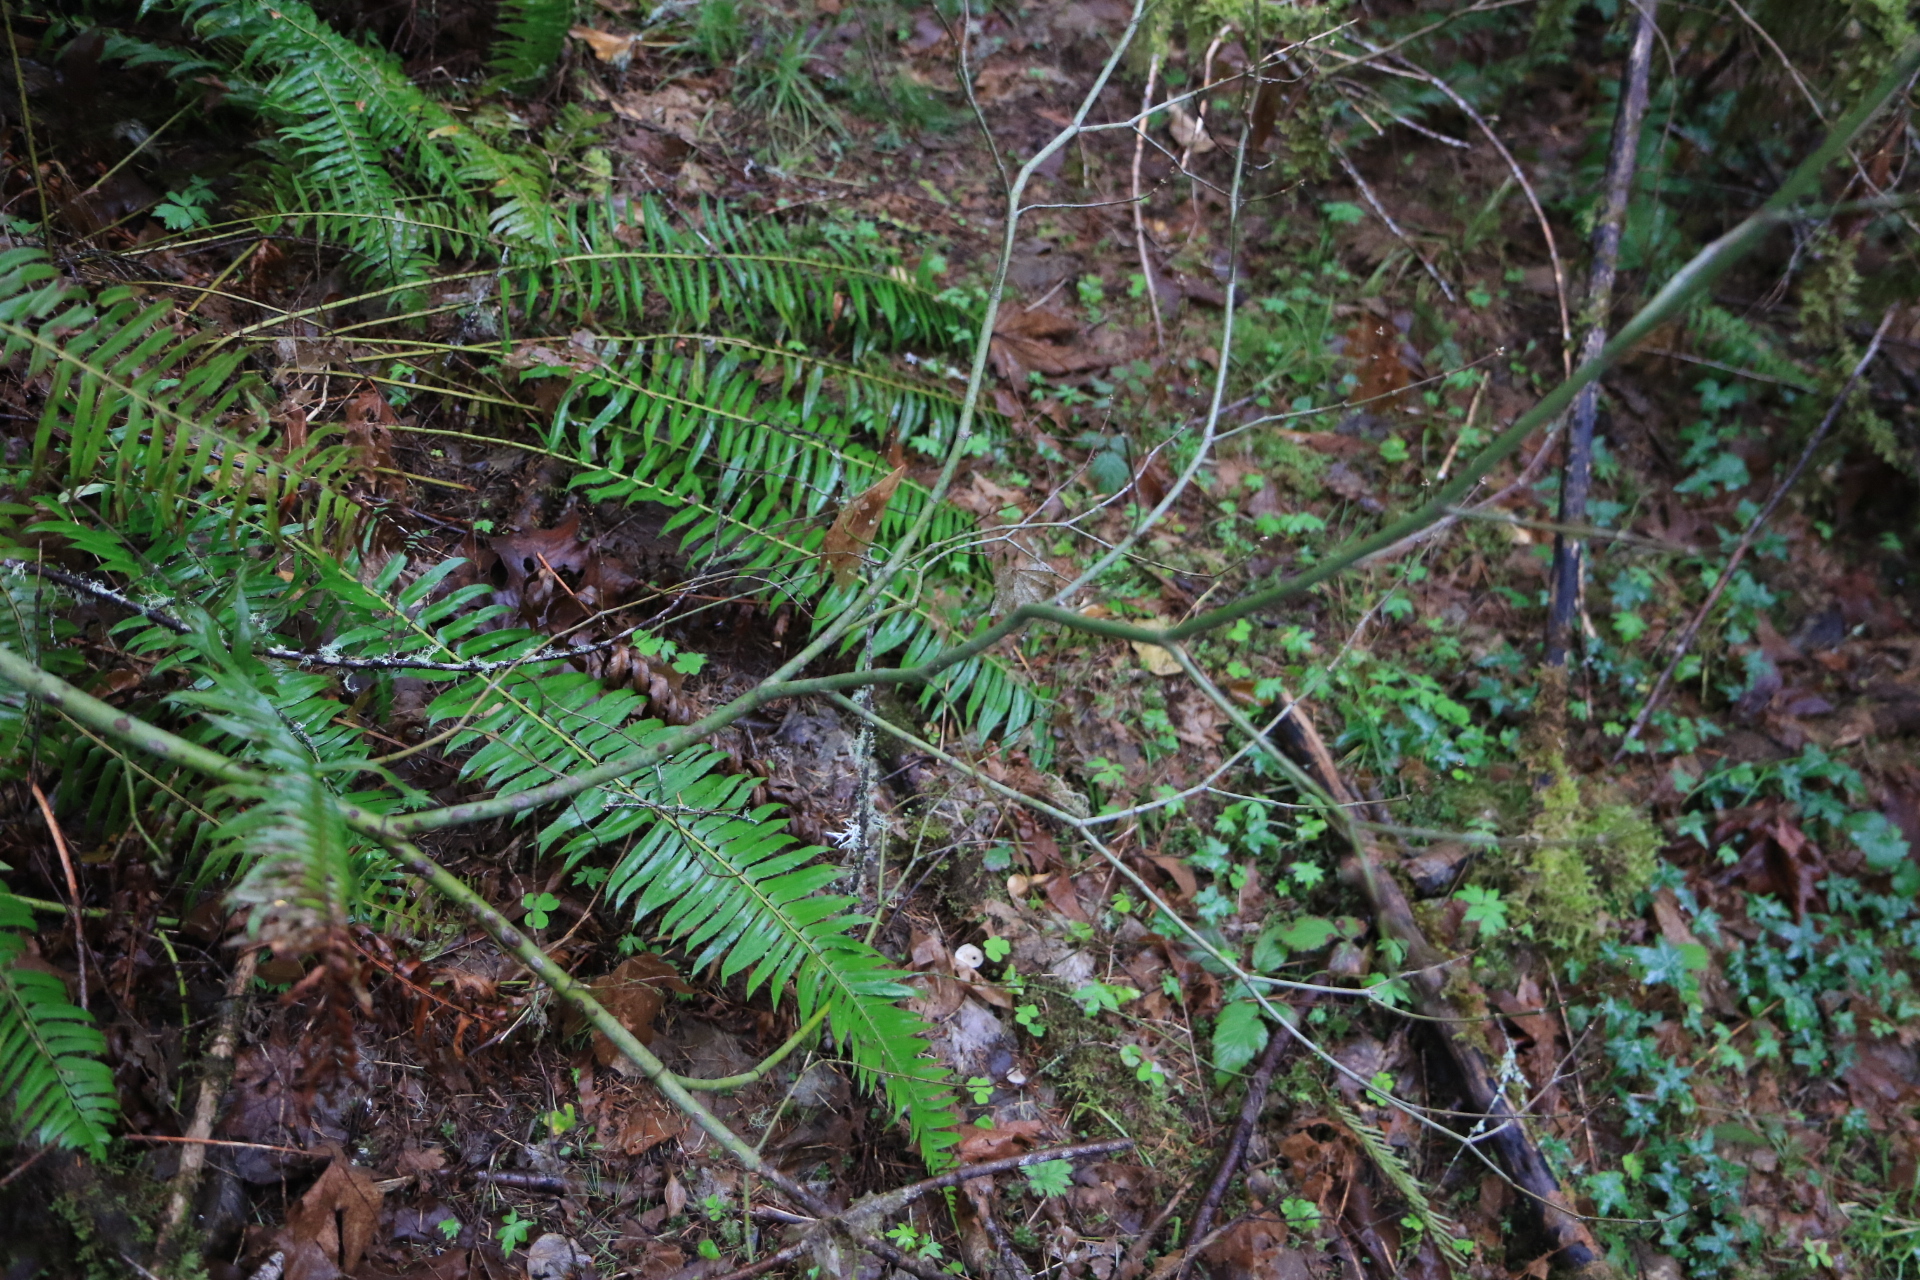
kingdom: Plantae
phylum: Tracheophyta
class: Magnoliopsida
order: Sapindales
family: Sapindaceae
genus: Acer
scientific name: Acer circinatum
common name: Vine maple
